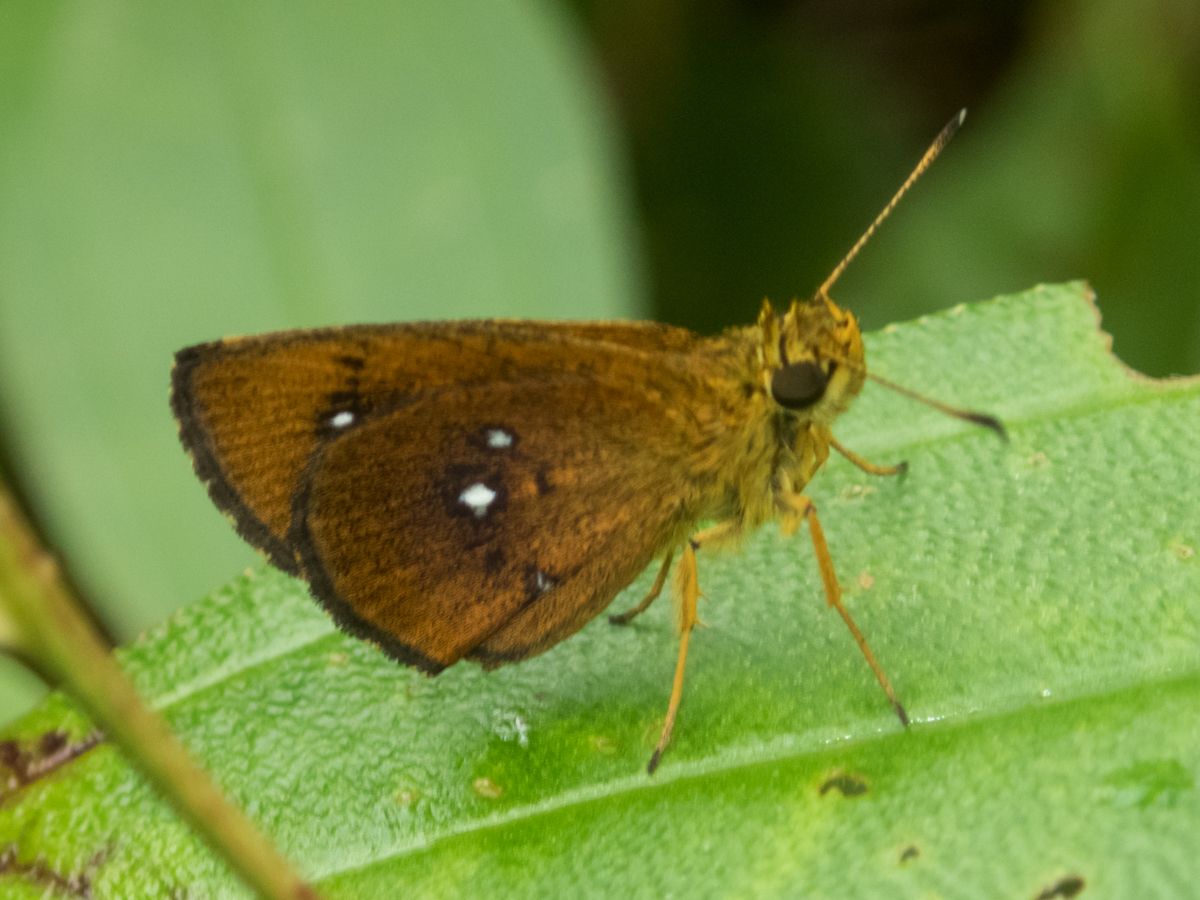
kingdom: Animalia
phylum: Arthropoda
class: Insecta
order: Lepidoptera
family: Hesperiidae
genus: Iambrix
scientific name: Iambrix salsala
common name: Chestnut bob
